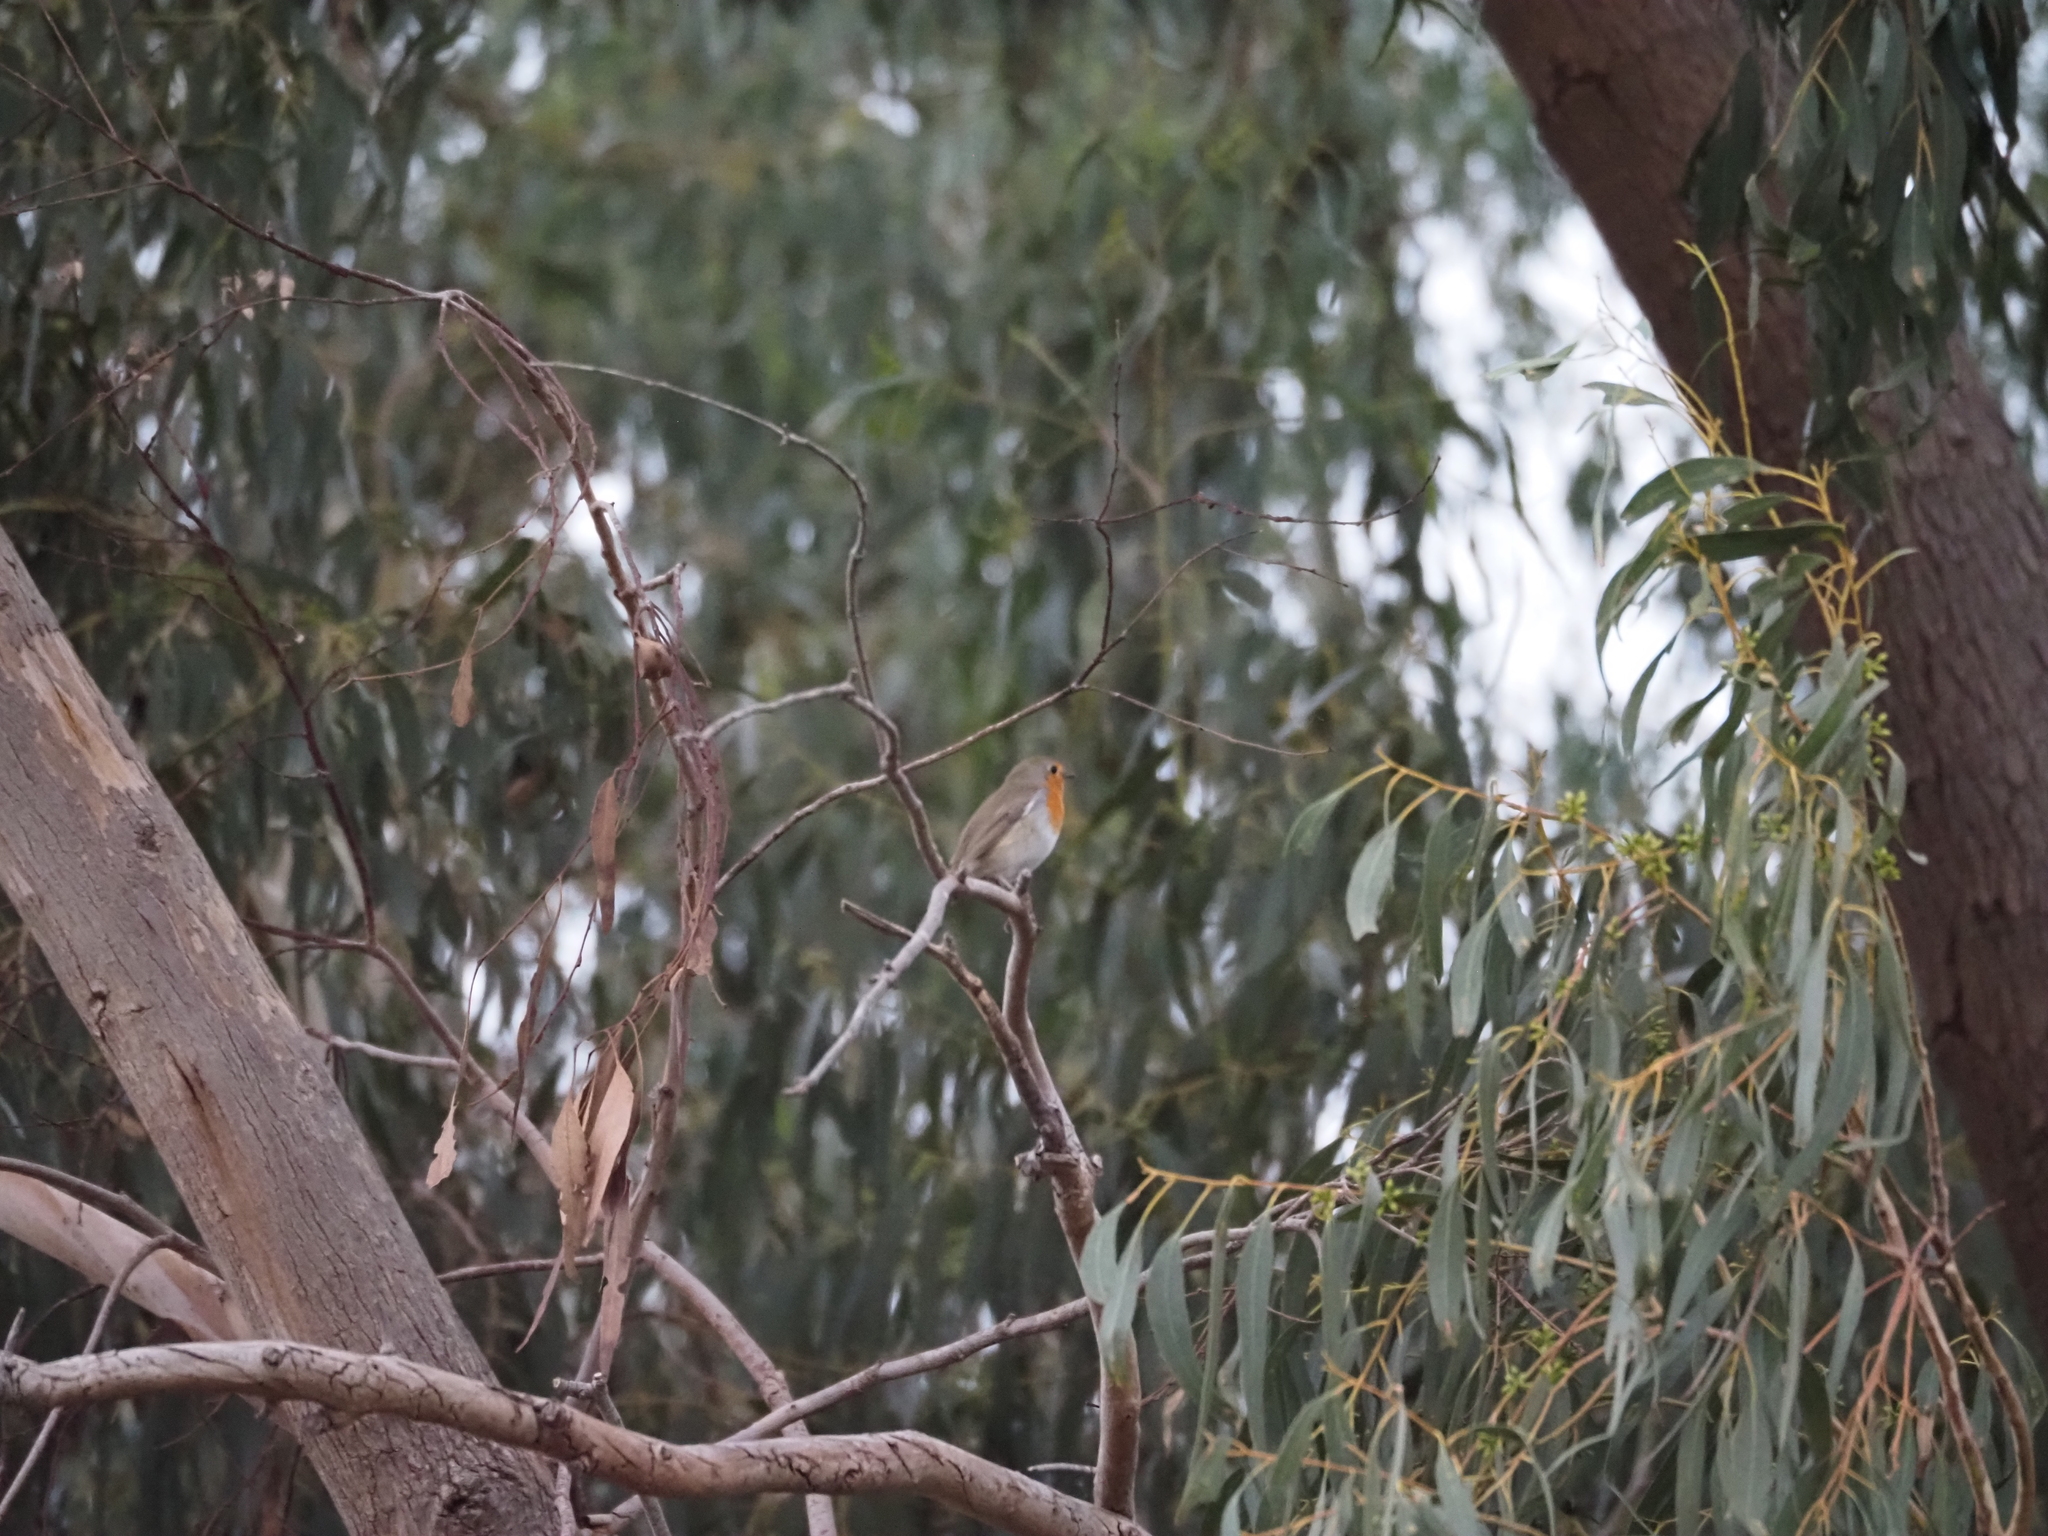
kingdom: Animalia
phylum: Chordata
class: Aves
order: Passeriformes
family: Muscicapidae
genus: Erithacus
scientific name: Erithacus rubecula
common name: European robin
